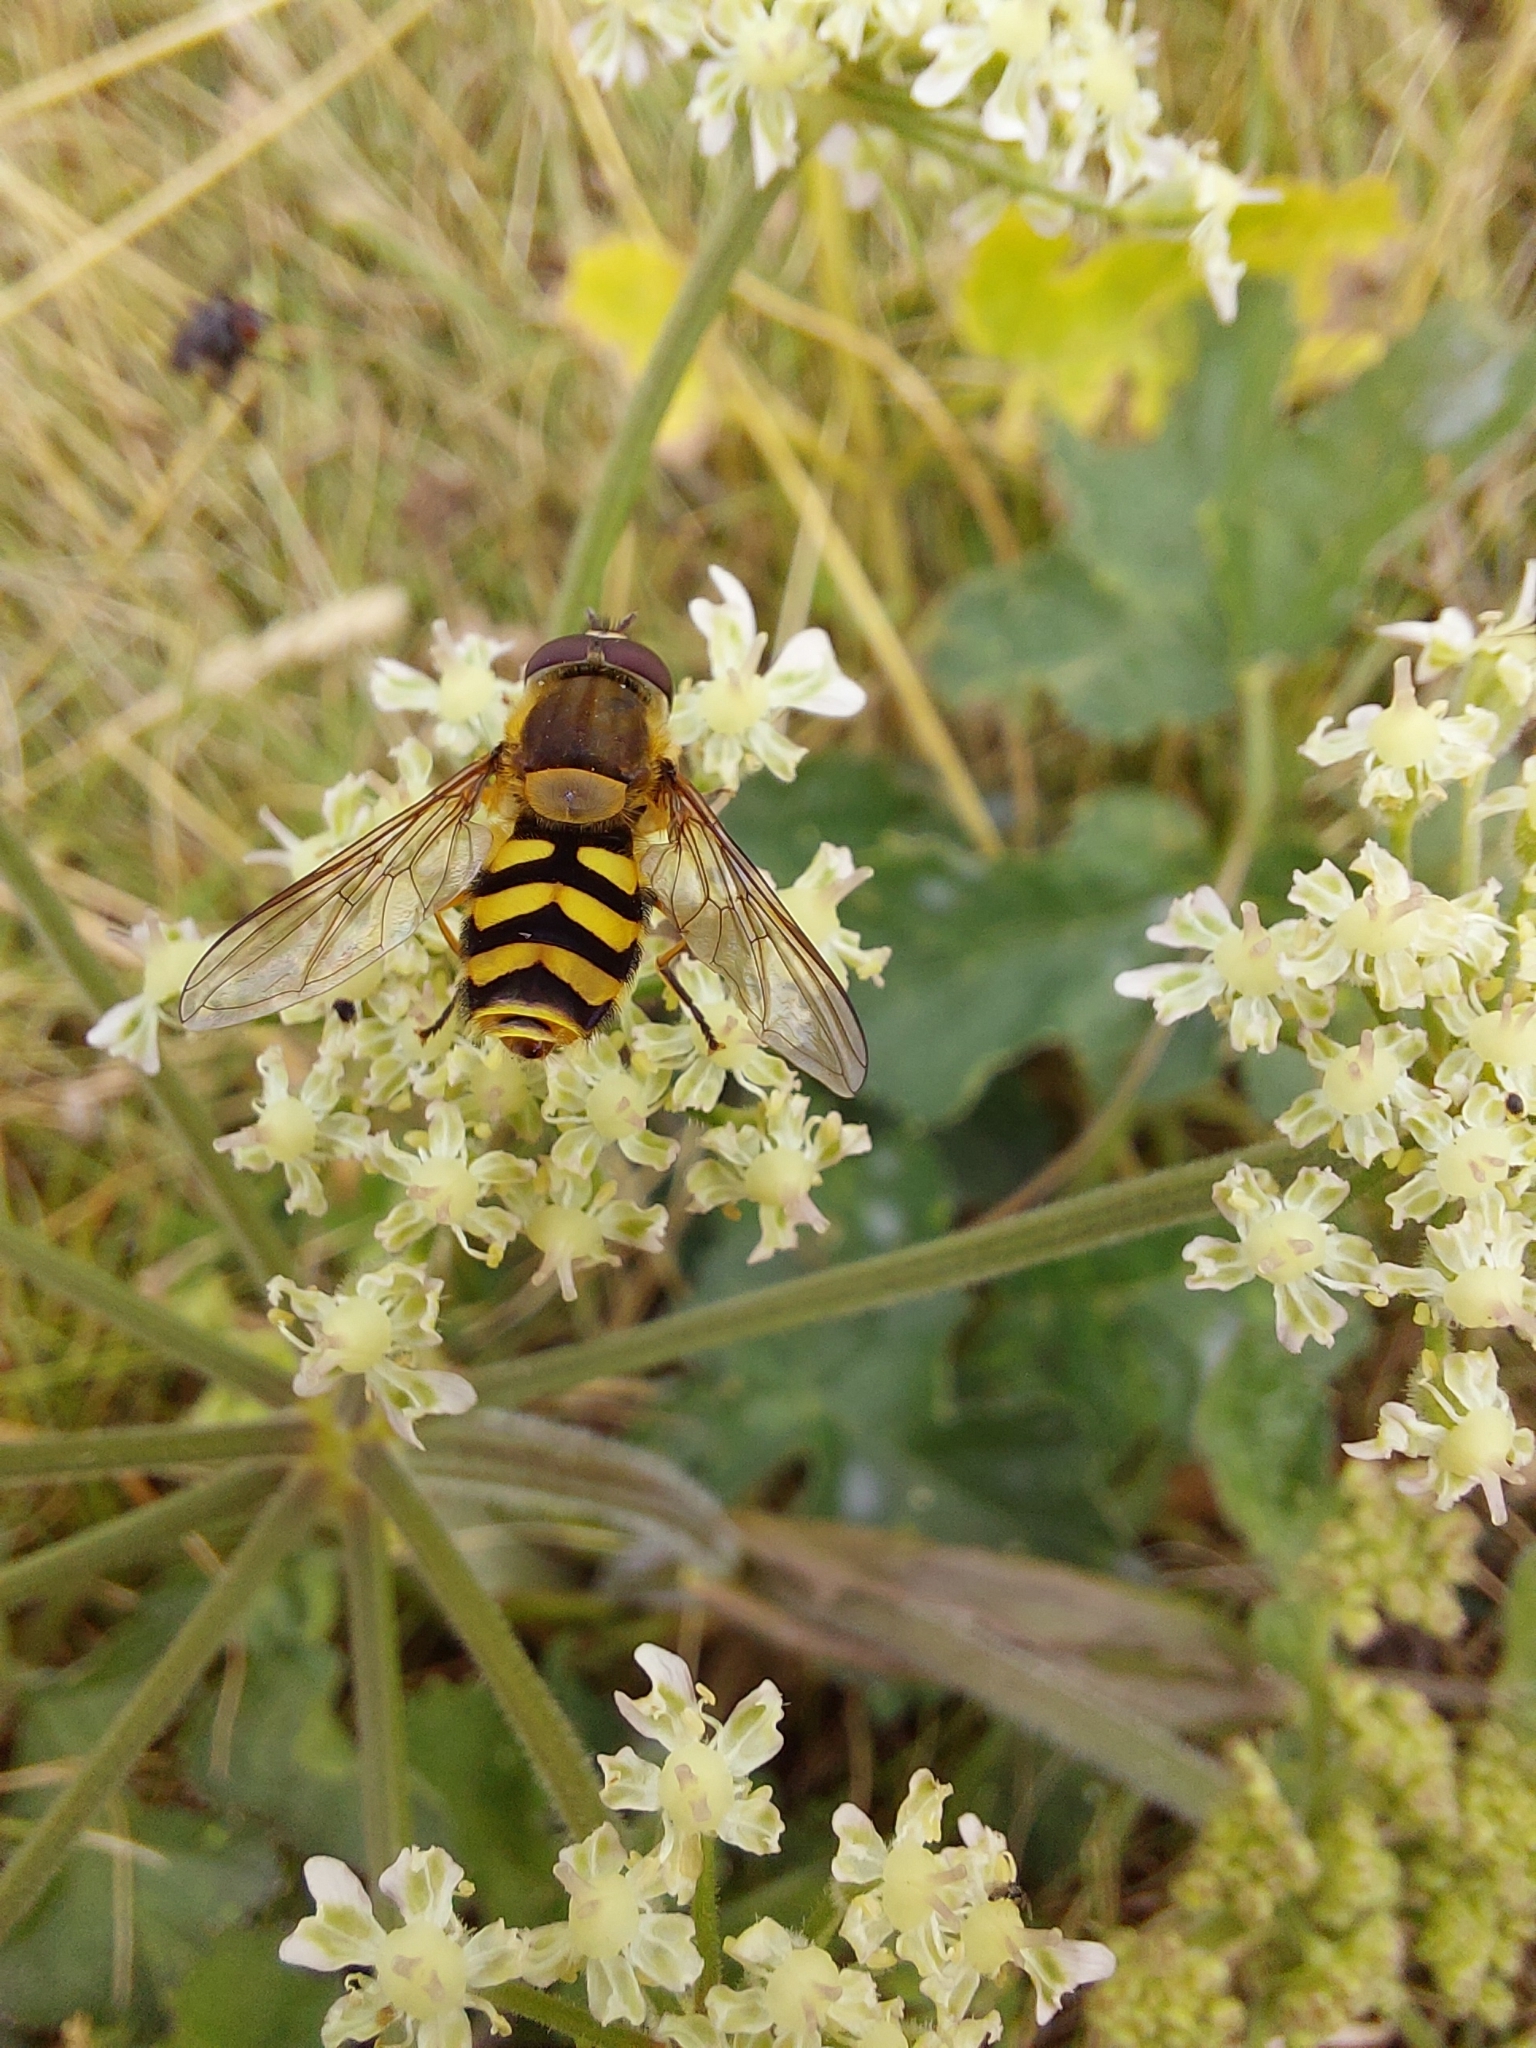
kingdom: Animalia
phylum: Arthropoda
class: Insecta
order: Diptera
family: Syrphidae
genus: Syrphus
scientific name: Syrphus
